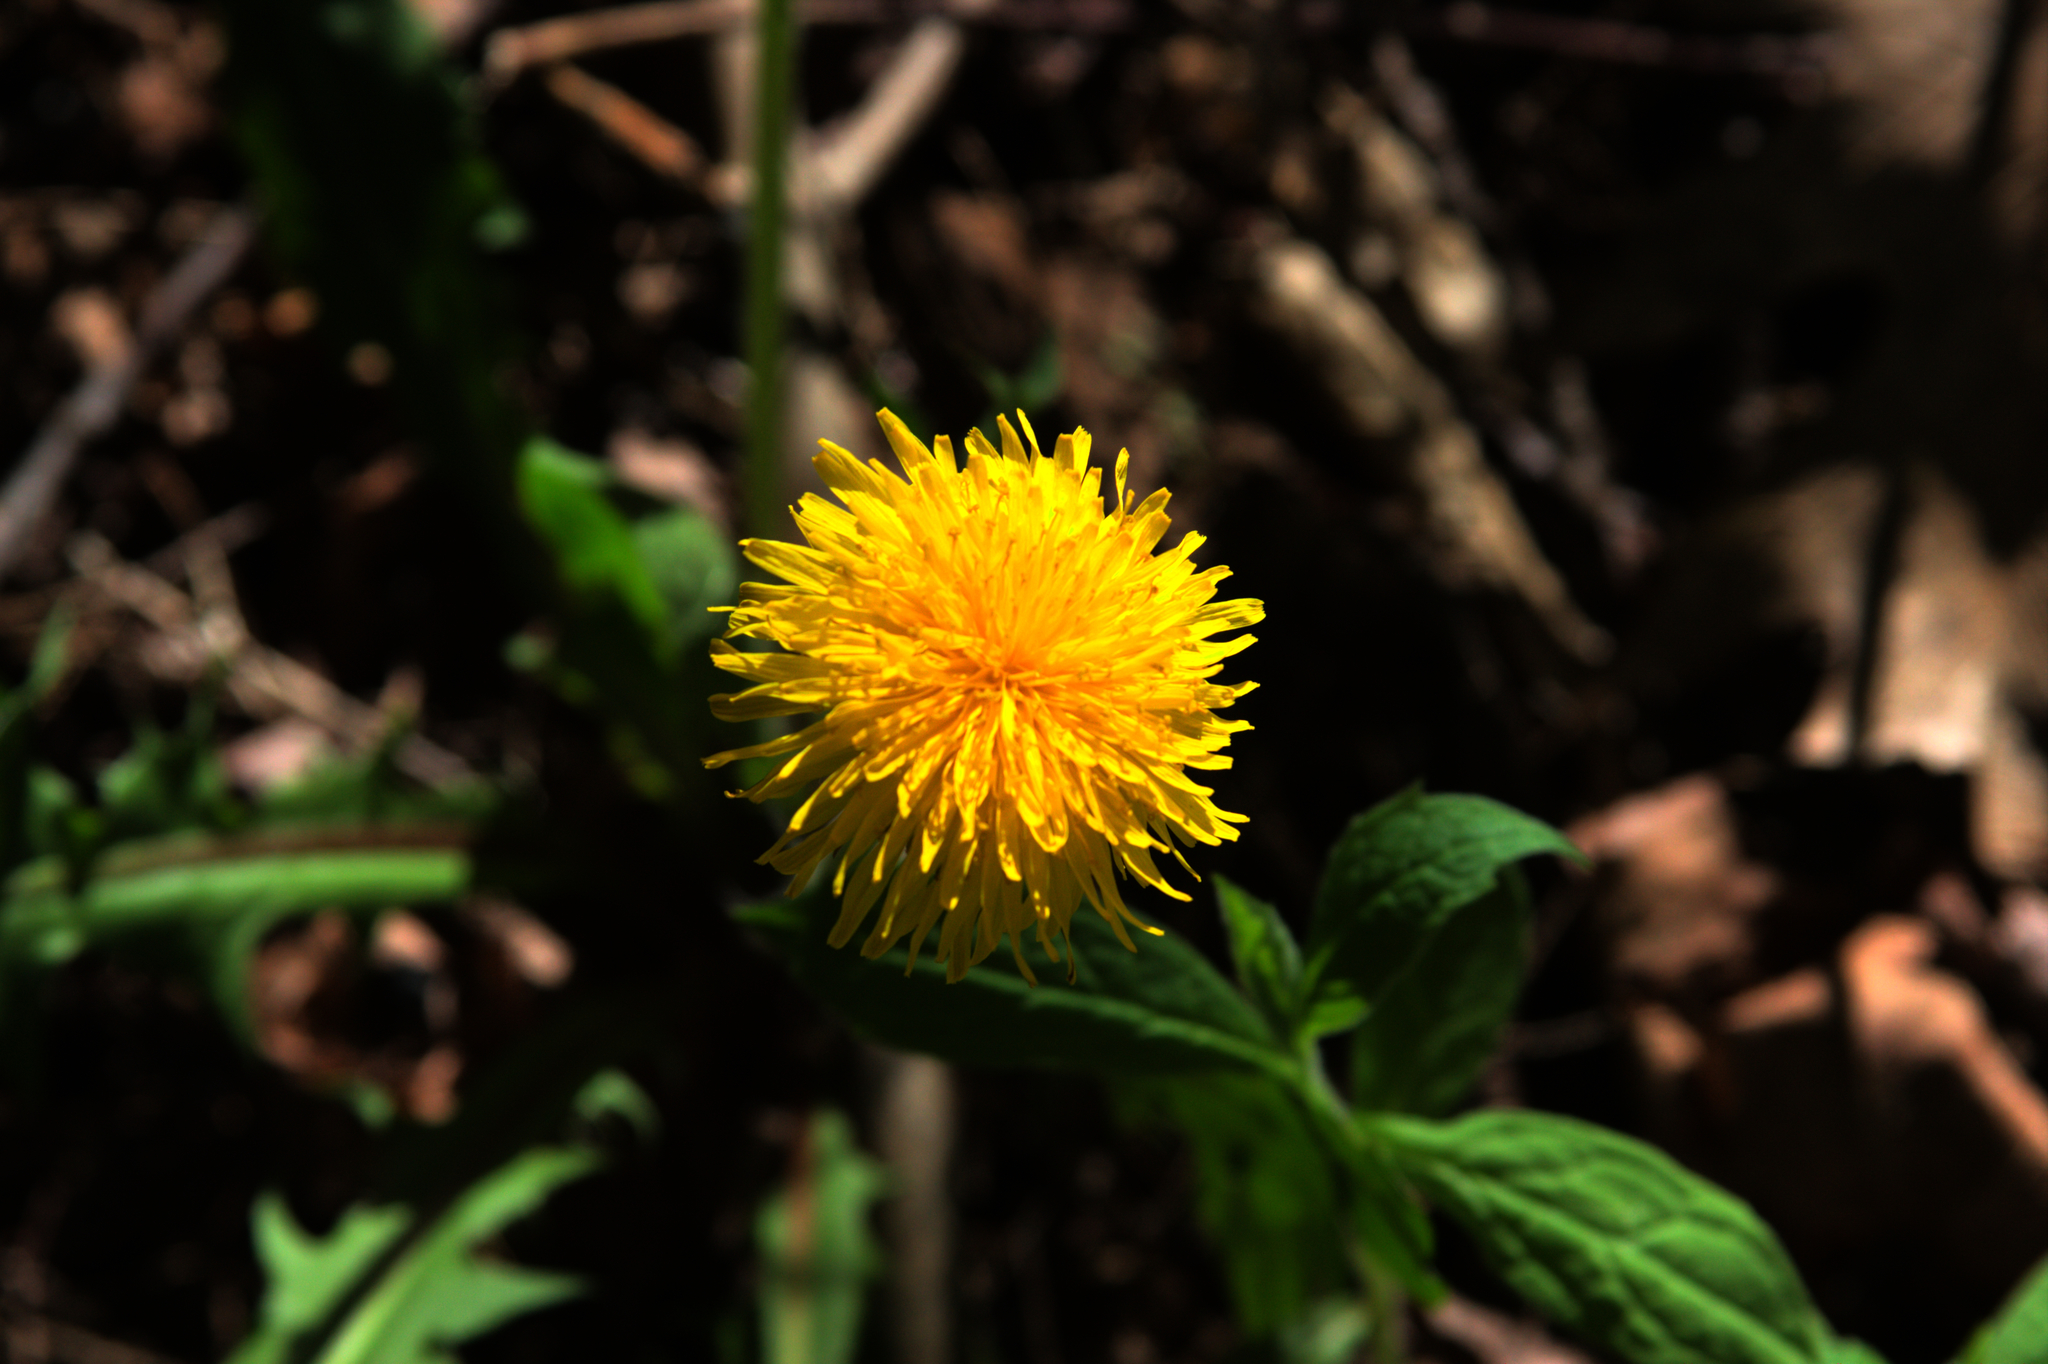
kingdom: Plantae
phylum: Tracheophyta
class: Magnoliopsida
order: Asterales
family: Asteraceae
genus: Taraxacum
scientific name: Taraxacum officinale
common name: Common dandelion
